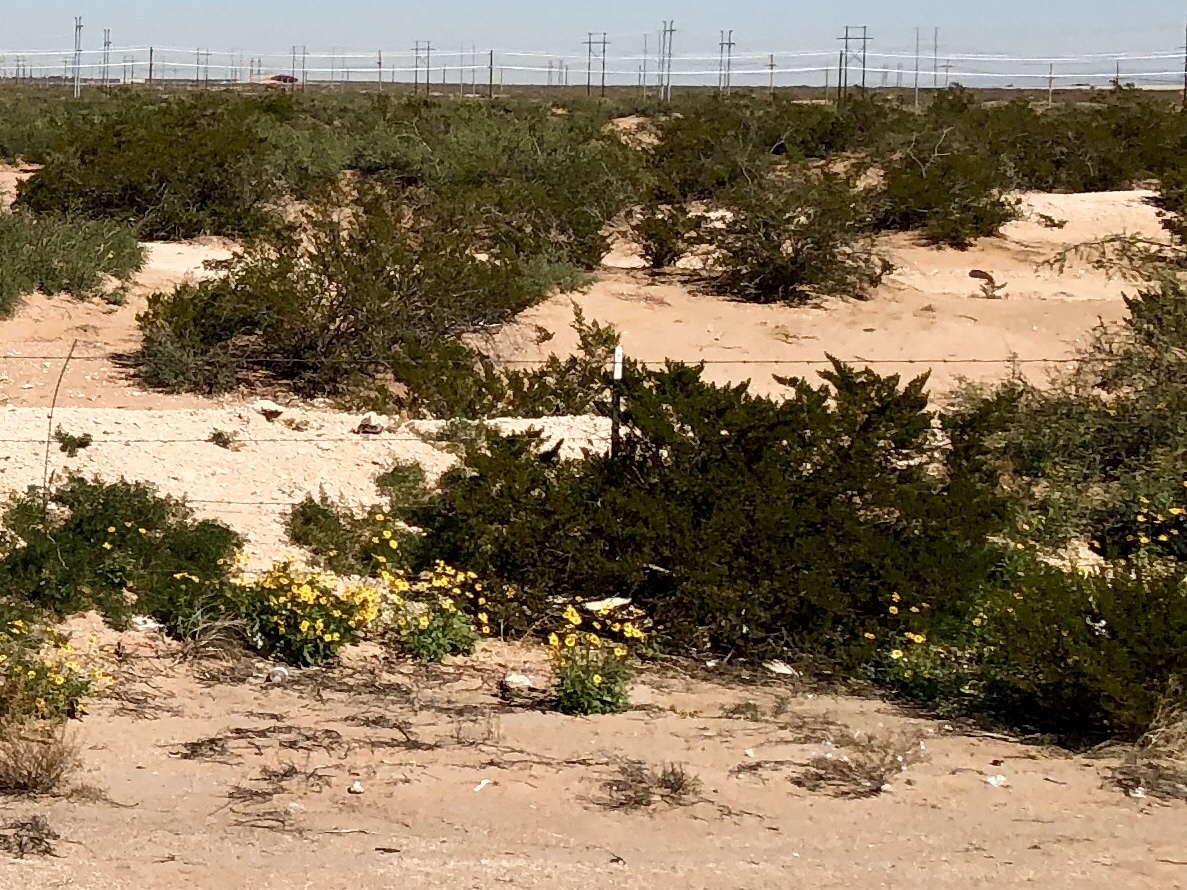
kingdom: Plantae
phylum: Tracheophyta
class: Magnoliopsida
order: Zygophyllales
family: Zygophyllaceae
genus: Larrea
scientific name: Larrea tridentata
